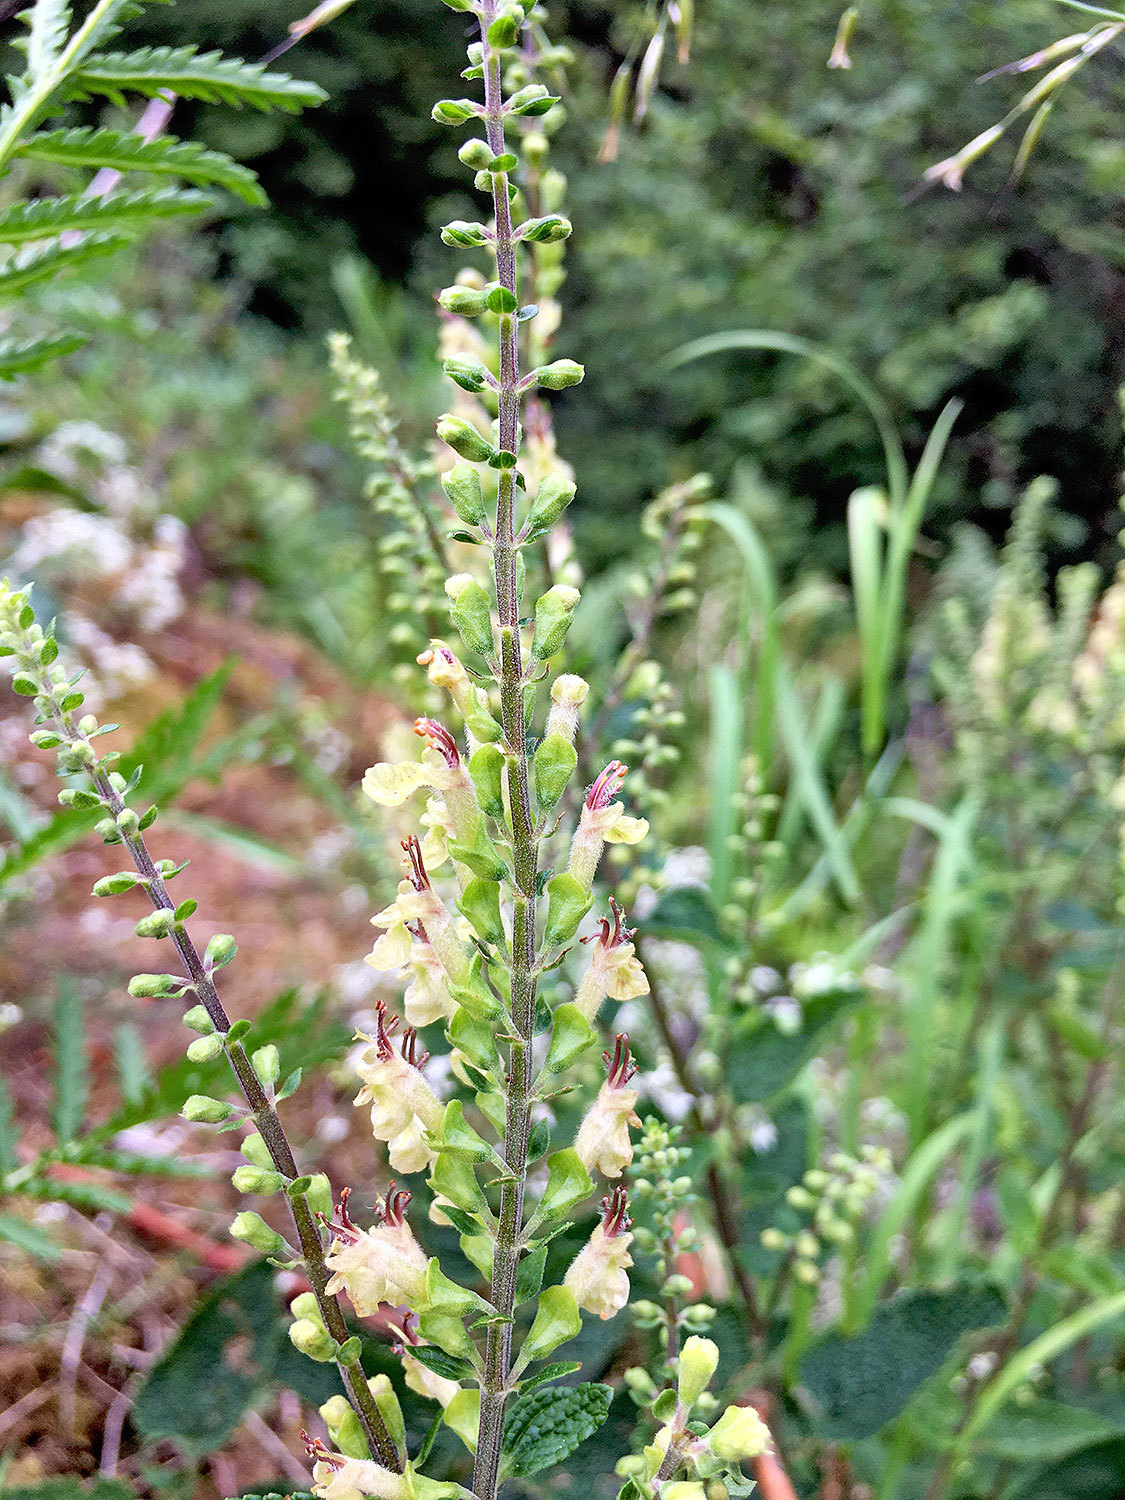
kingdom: Plantae
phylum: Tracheophyta
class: Magnoliopsida
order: Lamiales
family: Lamiaceae
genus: Teucrium
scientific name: Teucrium scorodonia
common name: Woodland germander
